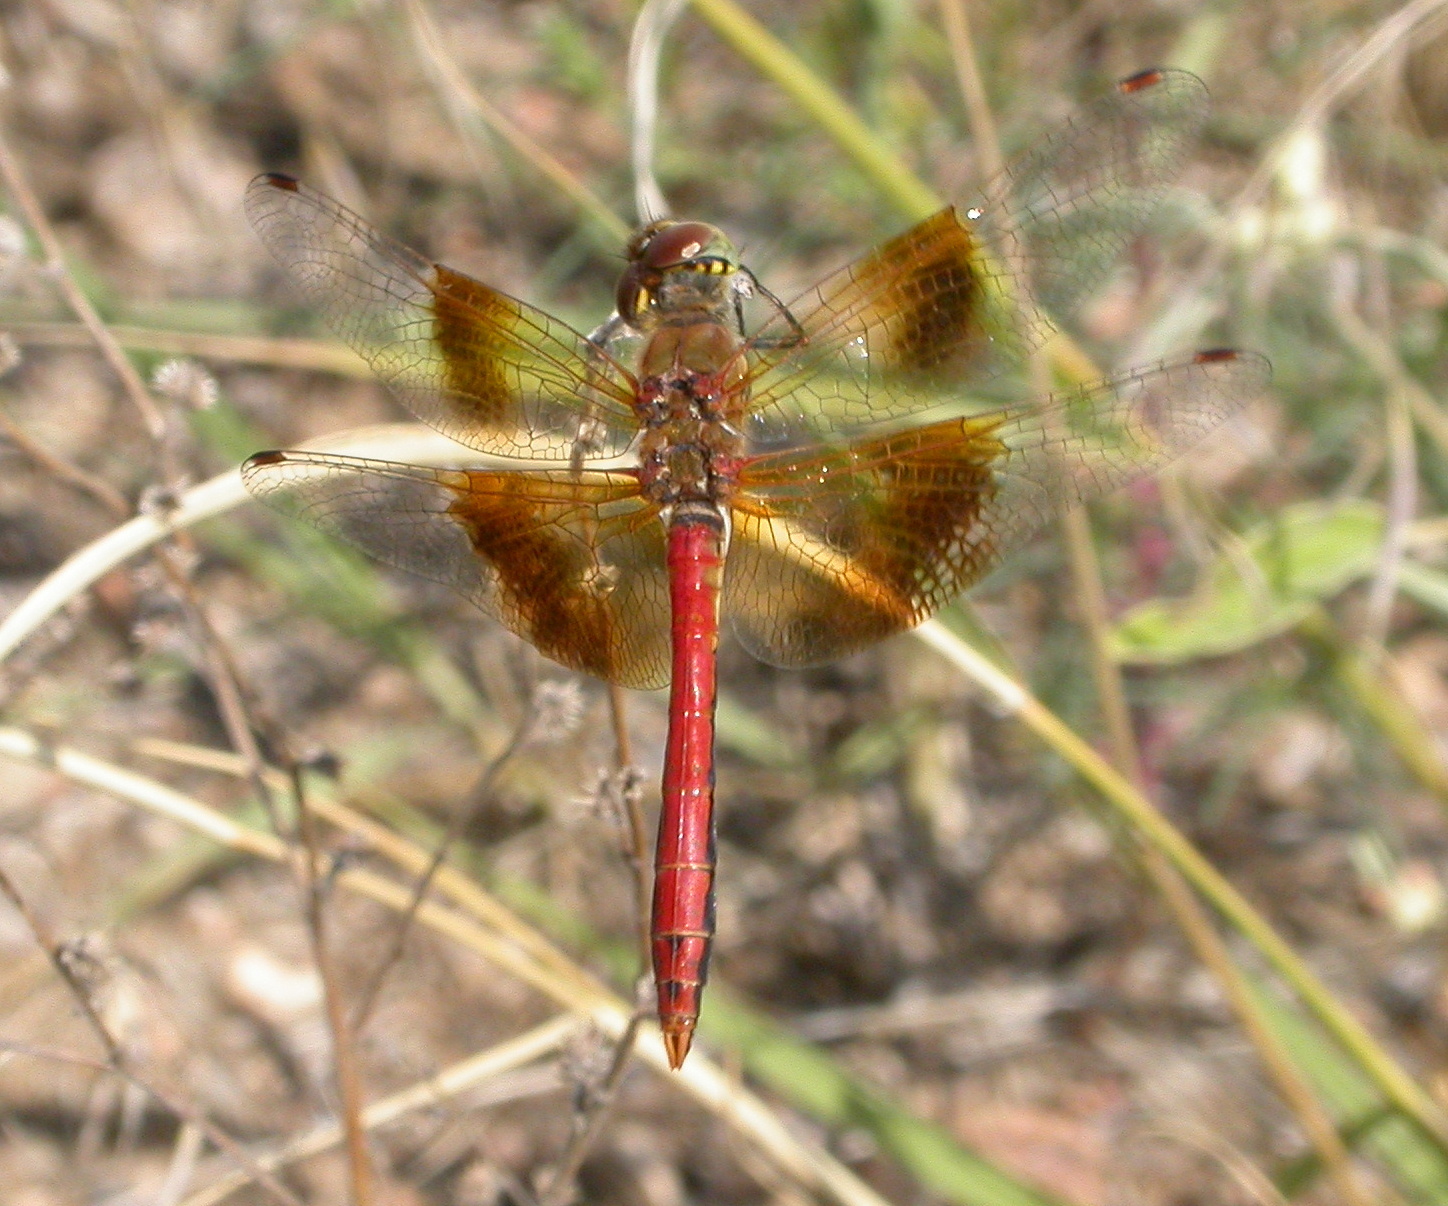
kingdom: Animalia
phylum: Arthropoda
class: Insecta
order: Odonata
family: Libellulidae
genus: Sympetrum
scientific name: Sympetrum semicinctum
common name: Band-winged meadowhawk
